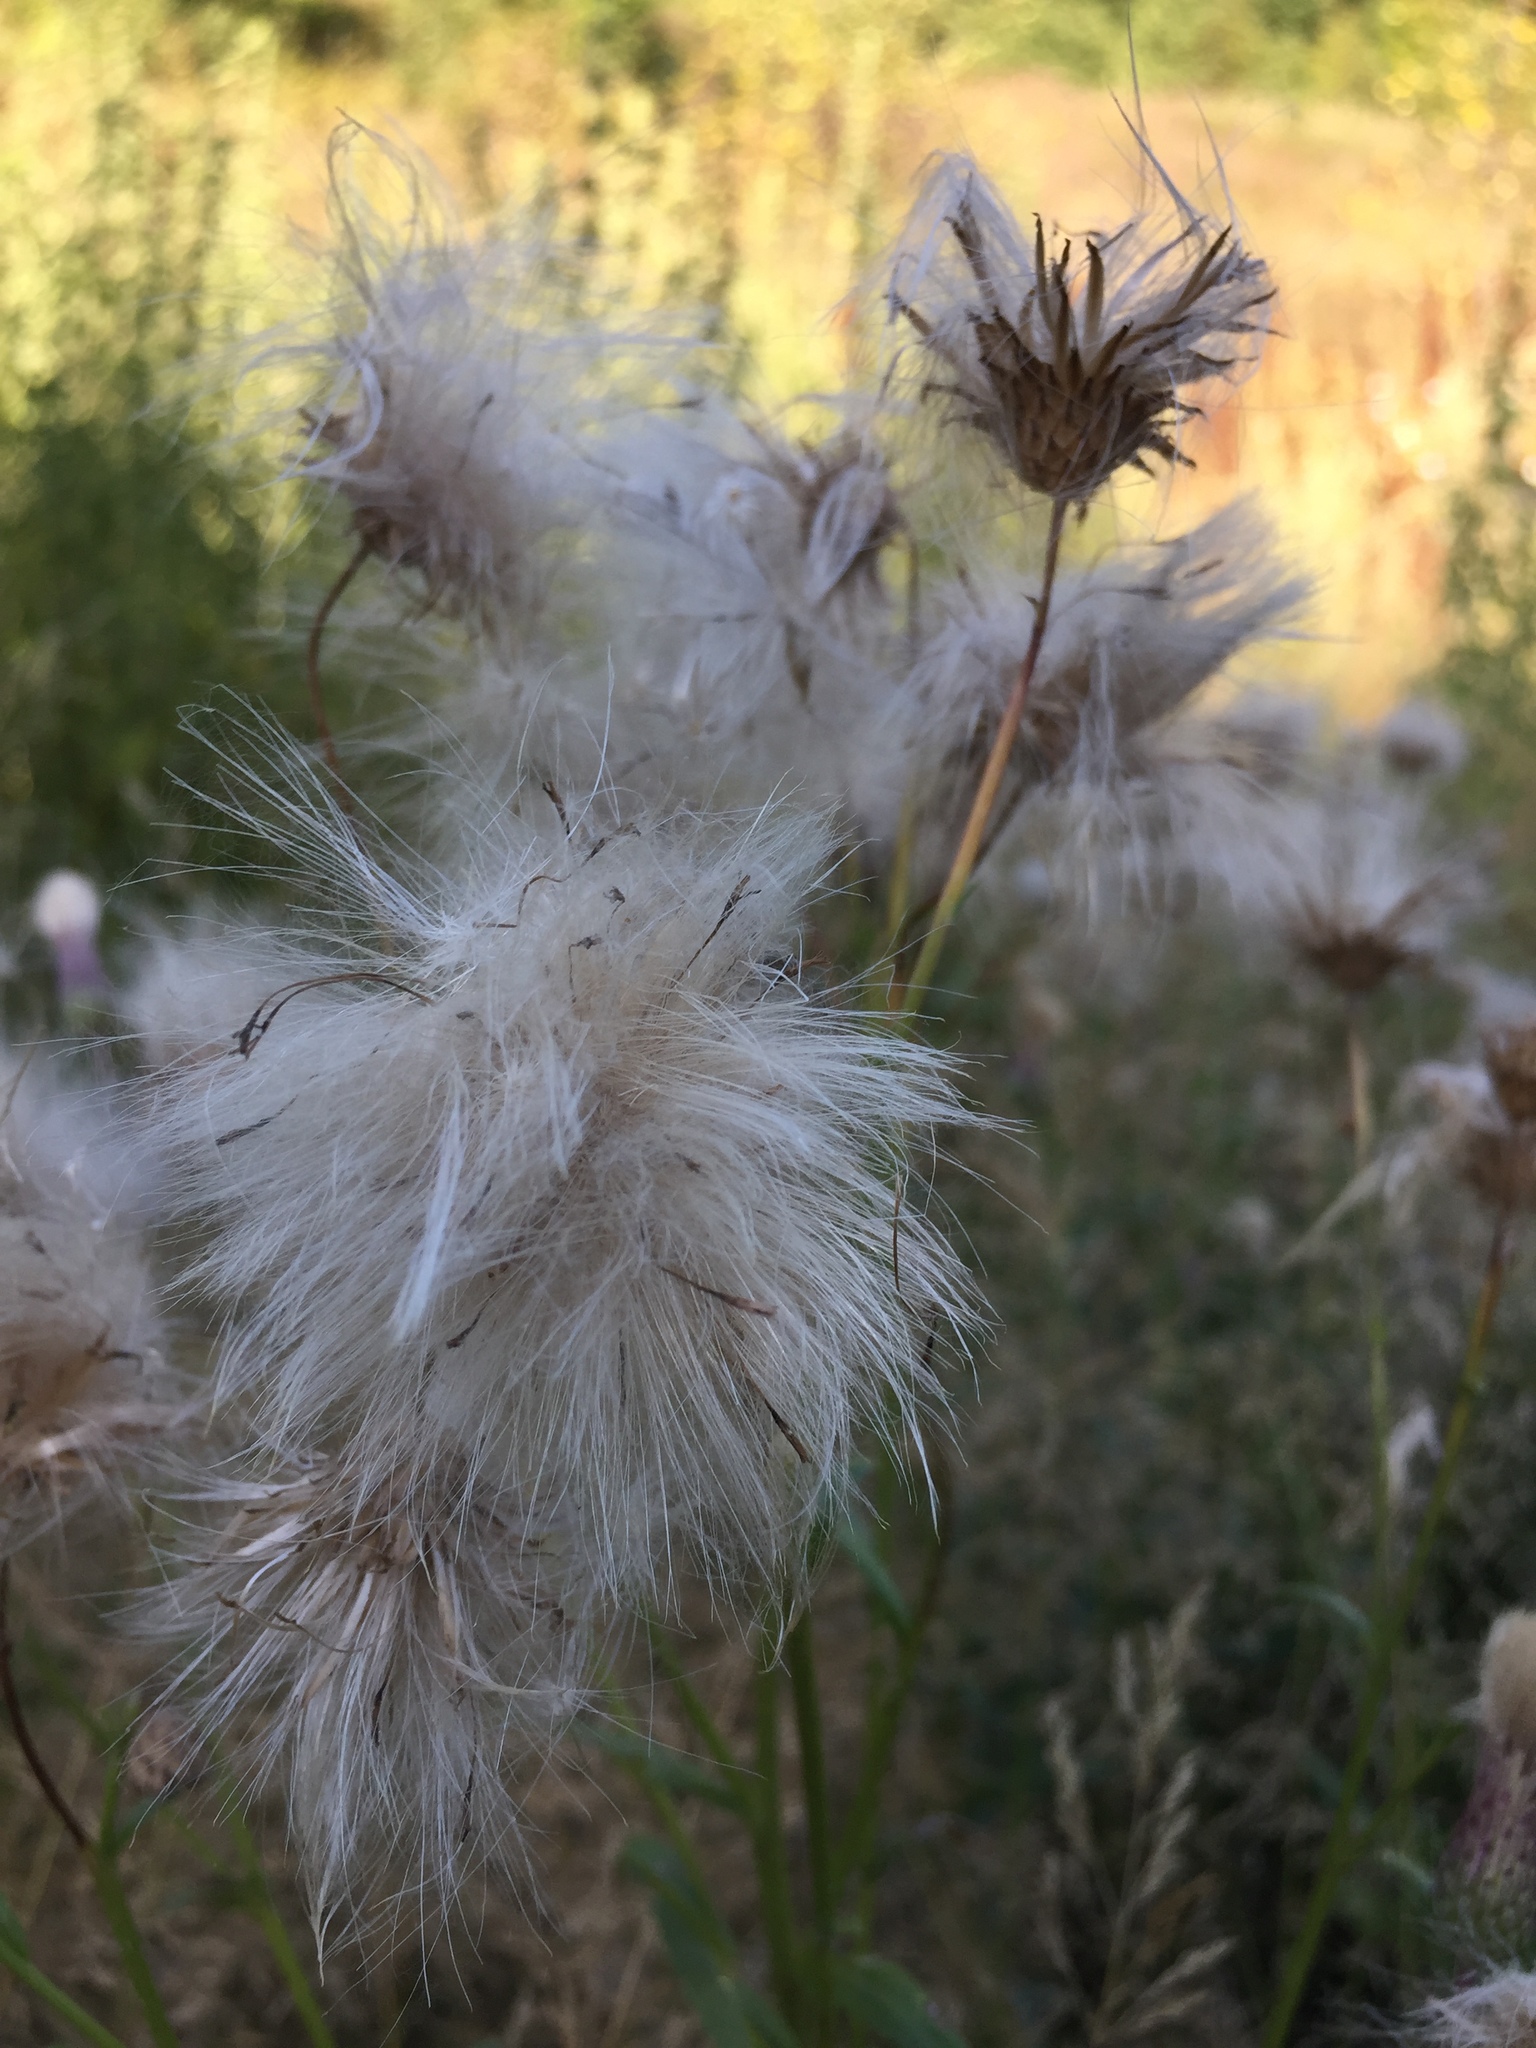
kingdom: Plantae
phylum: Tracheophyta
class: Magnoliopsida
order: Asterales
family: Asteraceae
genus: Cirsium
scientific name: Cirsium arvense
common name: Creeping thistle
